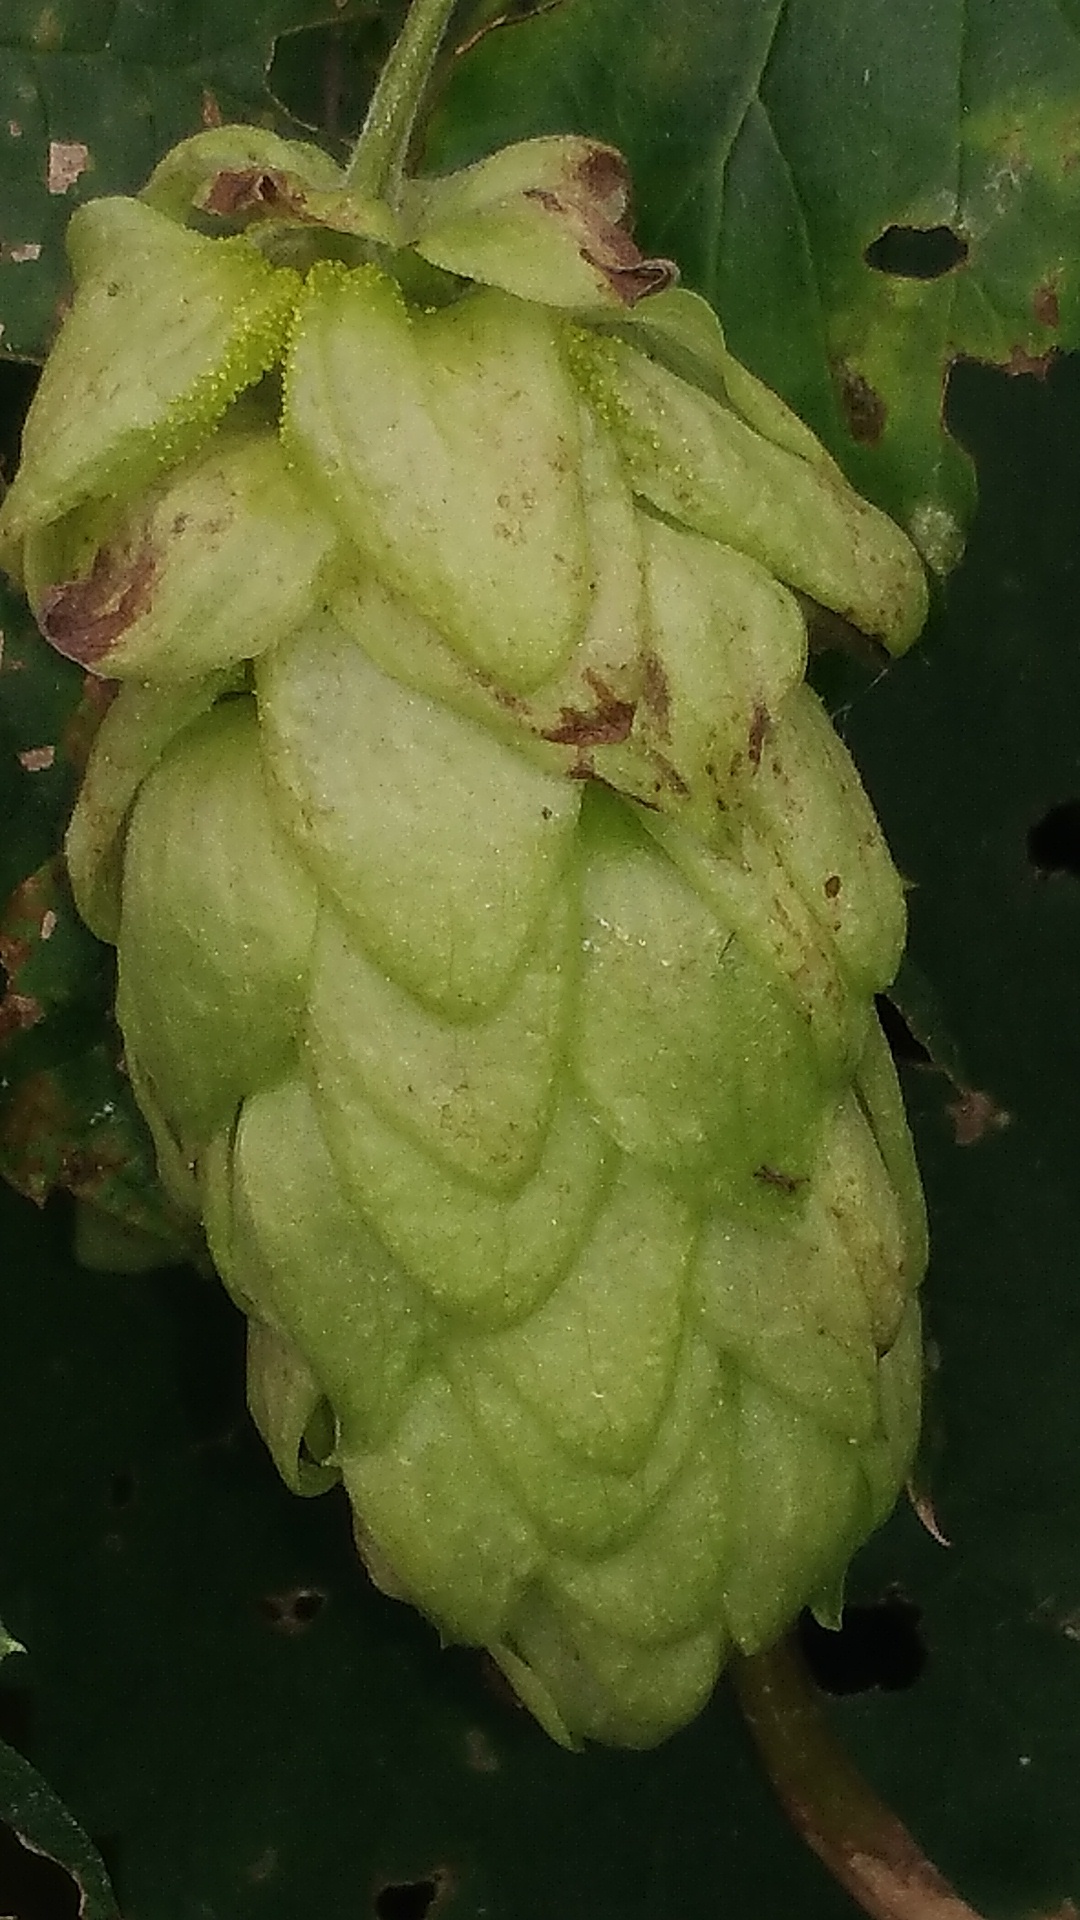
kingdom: Plantae
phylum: Tracheophyta
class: Magnoliopsida
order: Rosales
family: Cannabaceae
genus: Humulus
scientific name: Humulus lupulus
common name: Hop
